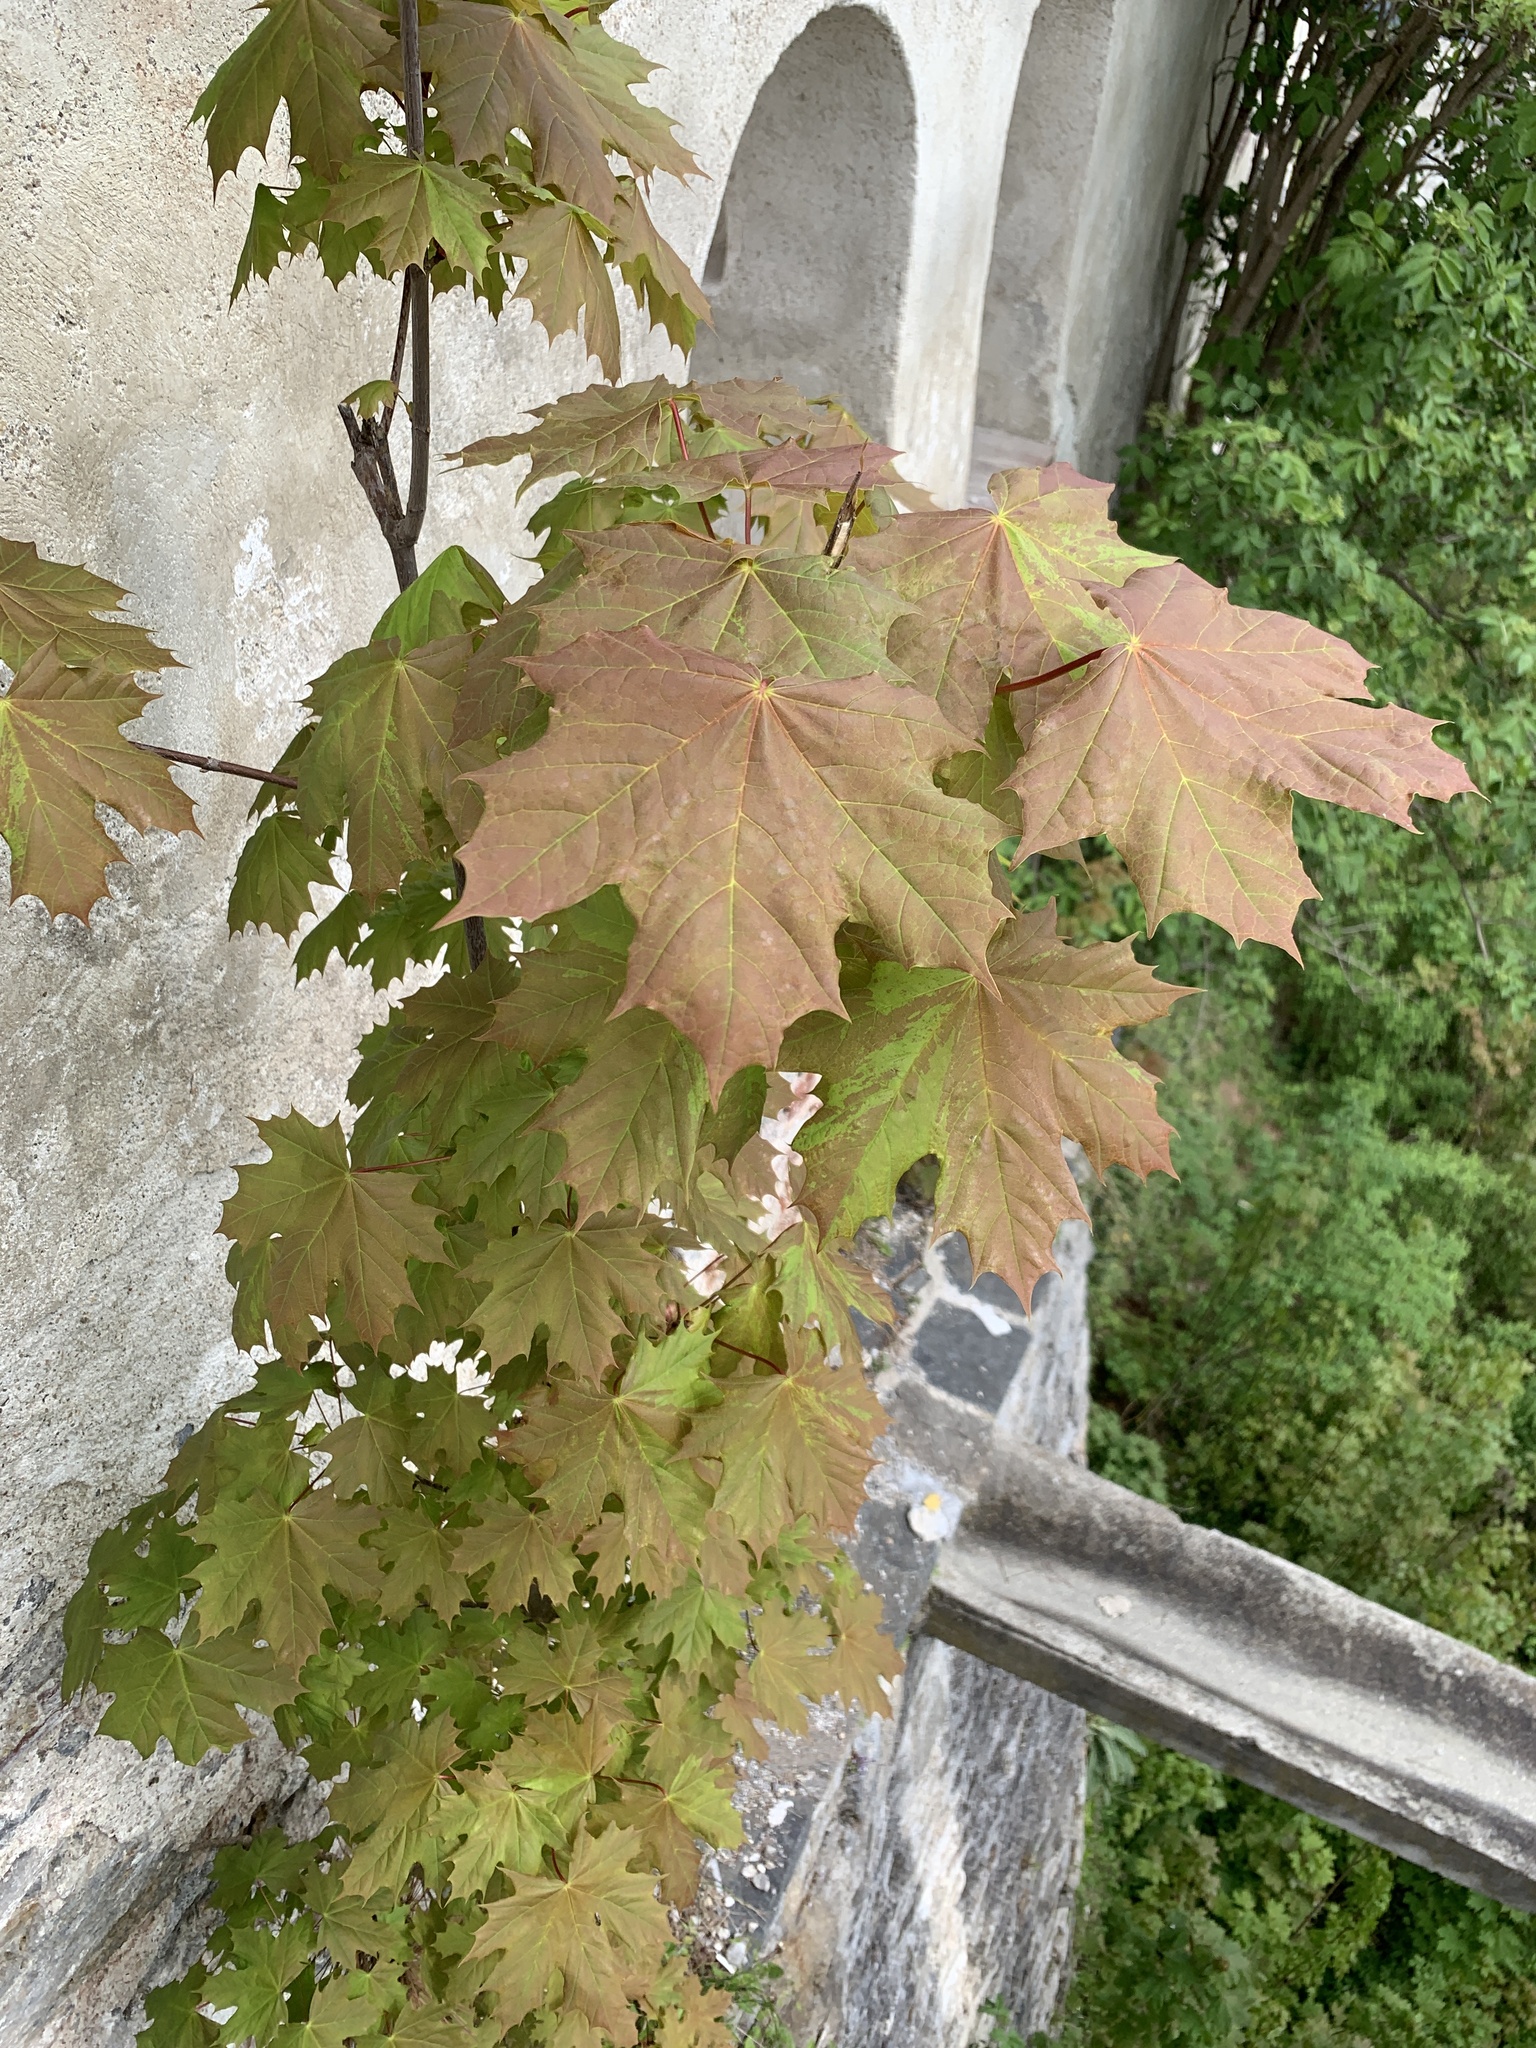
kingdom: Plantae
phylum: Tracheophyta
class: Magnoliopsida
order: Sapindales
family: Sapindaceae
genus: Acer
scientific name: Acer platanoides
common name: Norway maple
